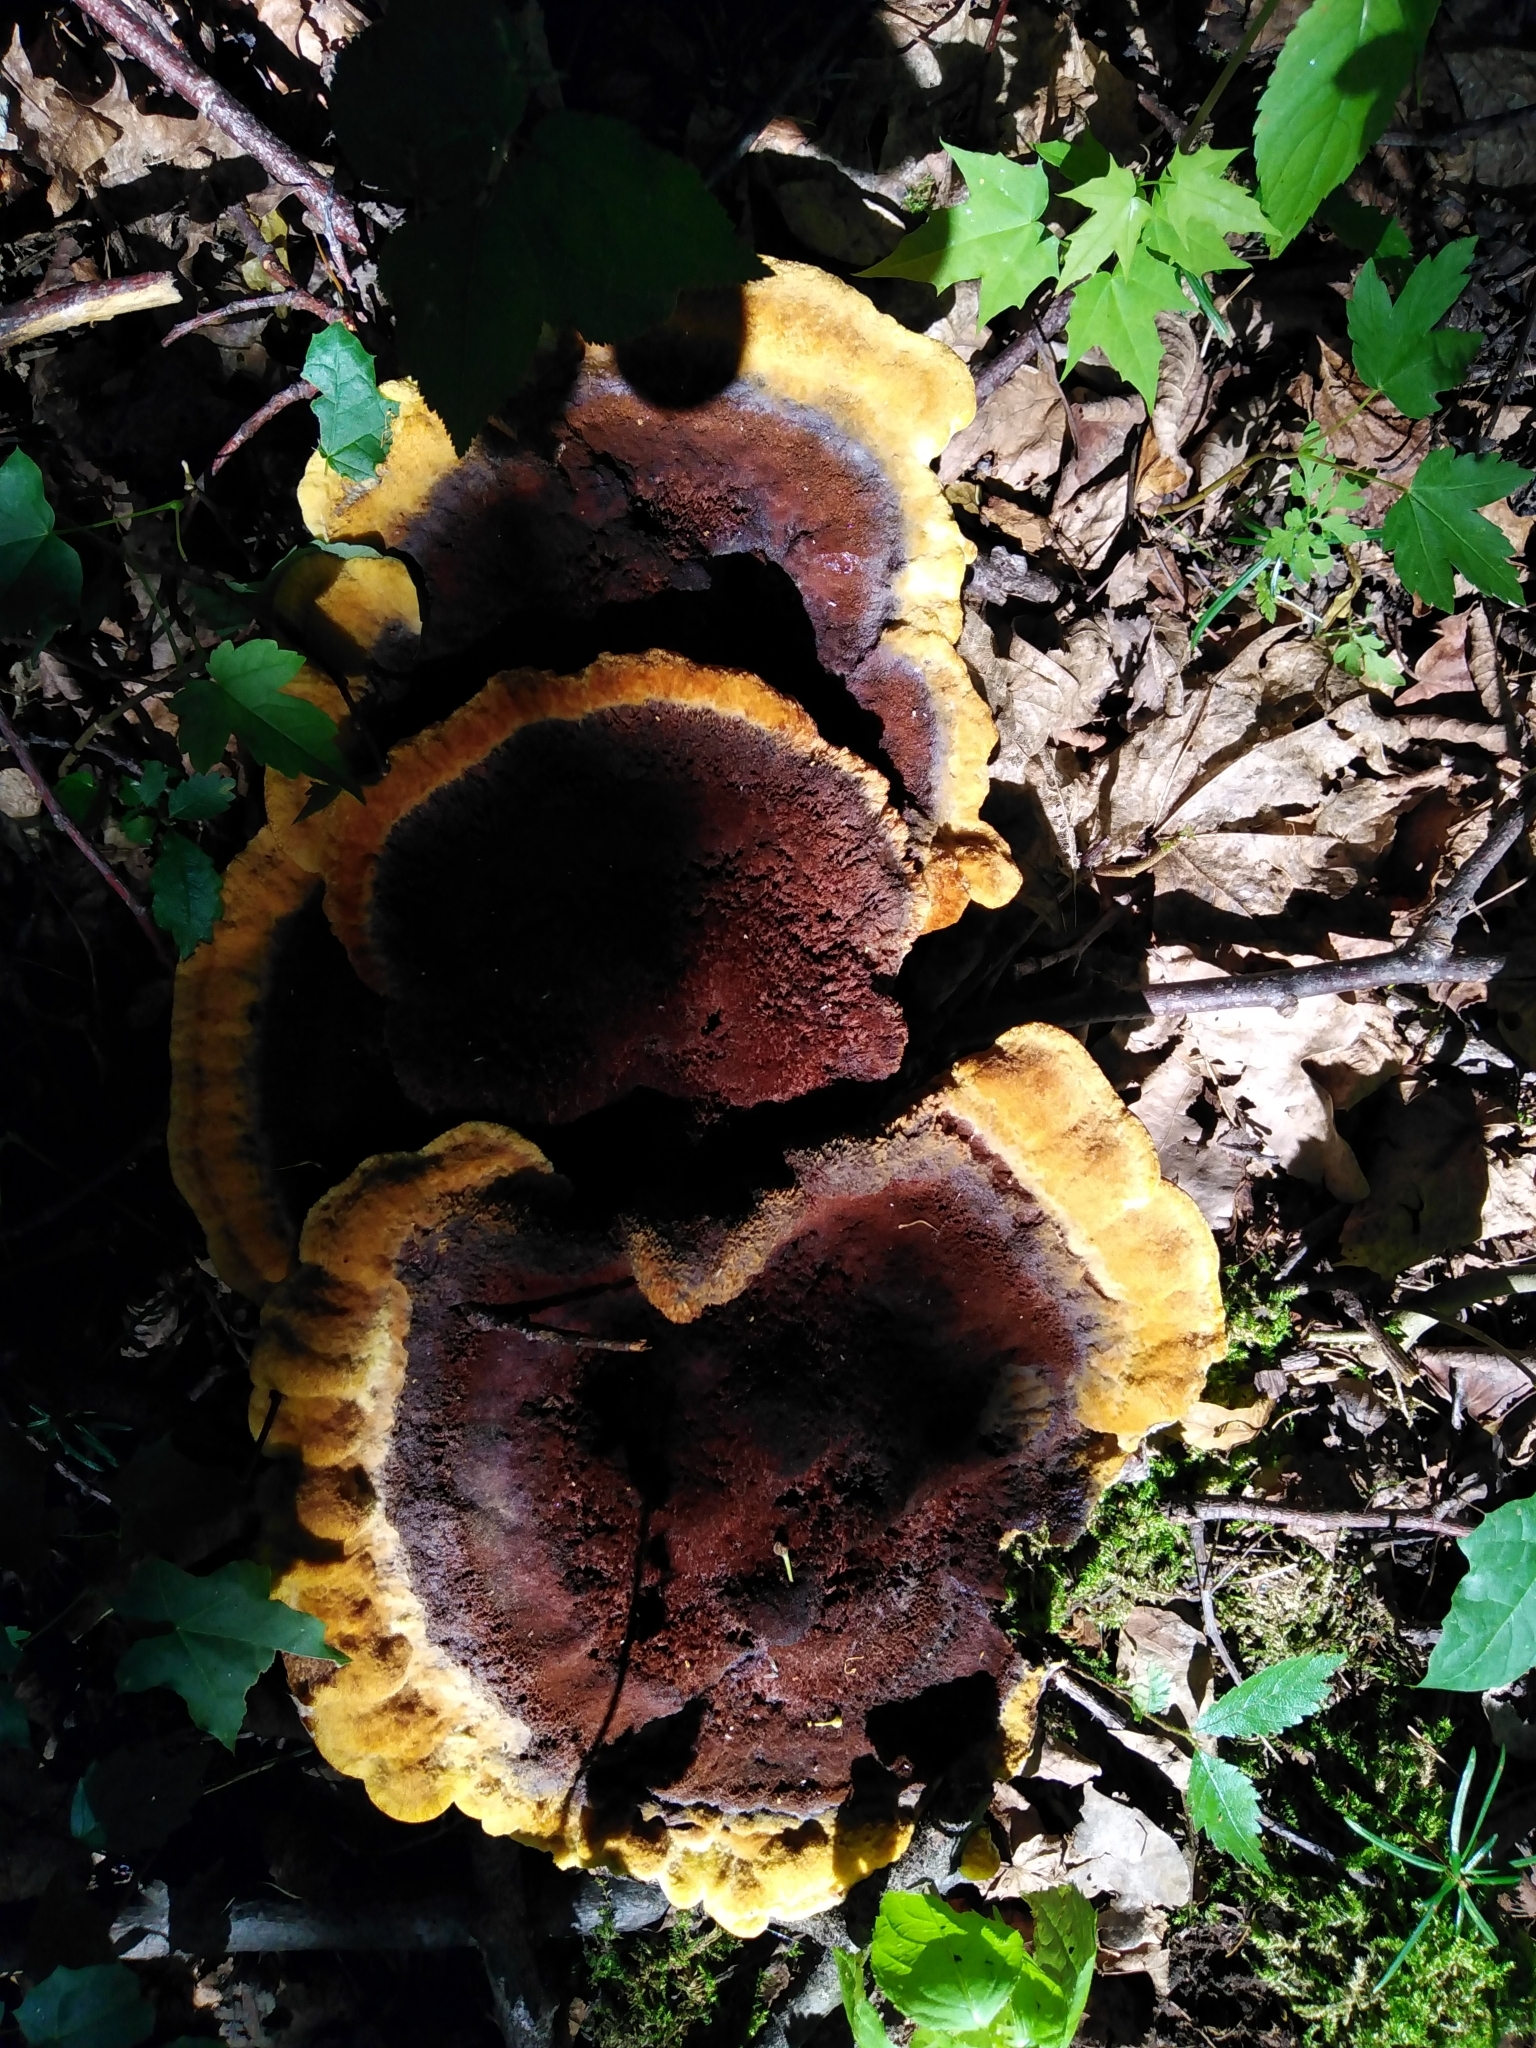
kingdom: Fungi
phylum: Basidiomycota
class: Agaricomycetes
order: Polyporales
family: Laetiporaceae
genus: Phaeolus
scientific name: Phaeolus schweinitzii
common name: Dyer's mazegill
